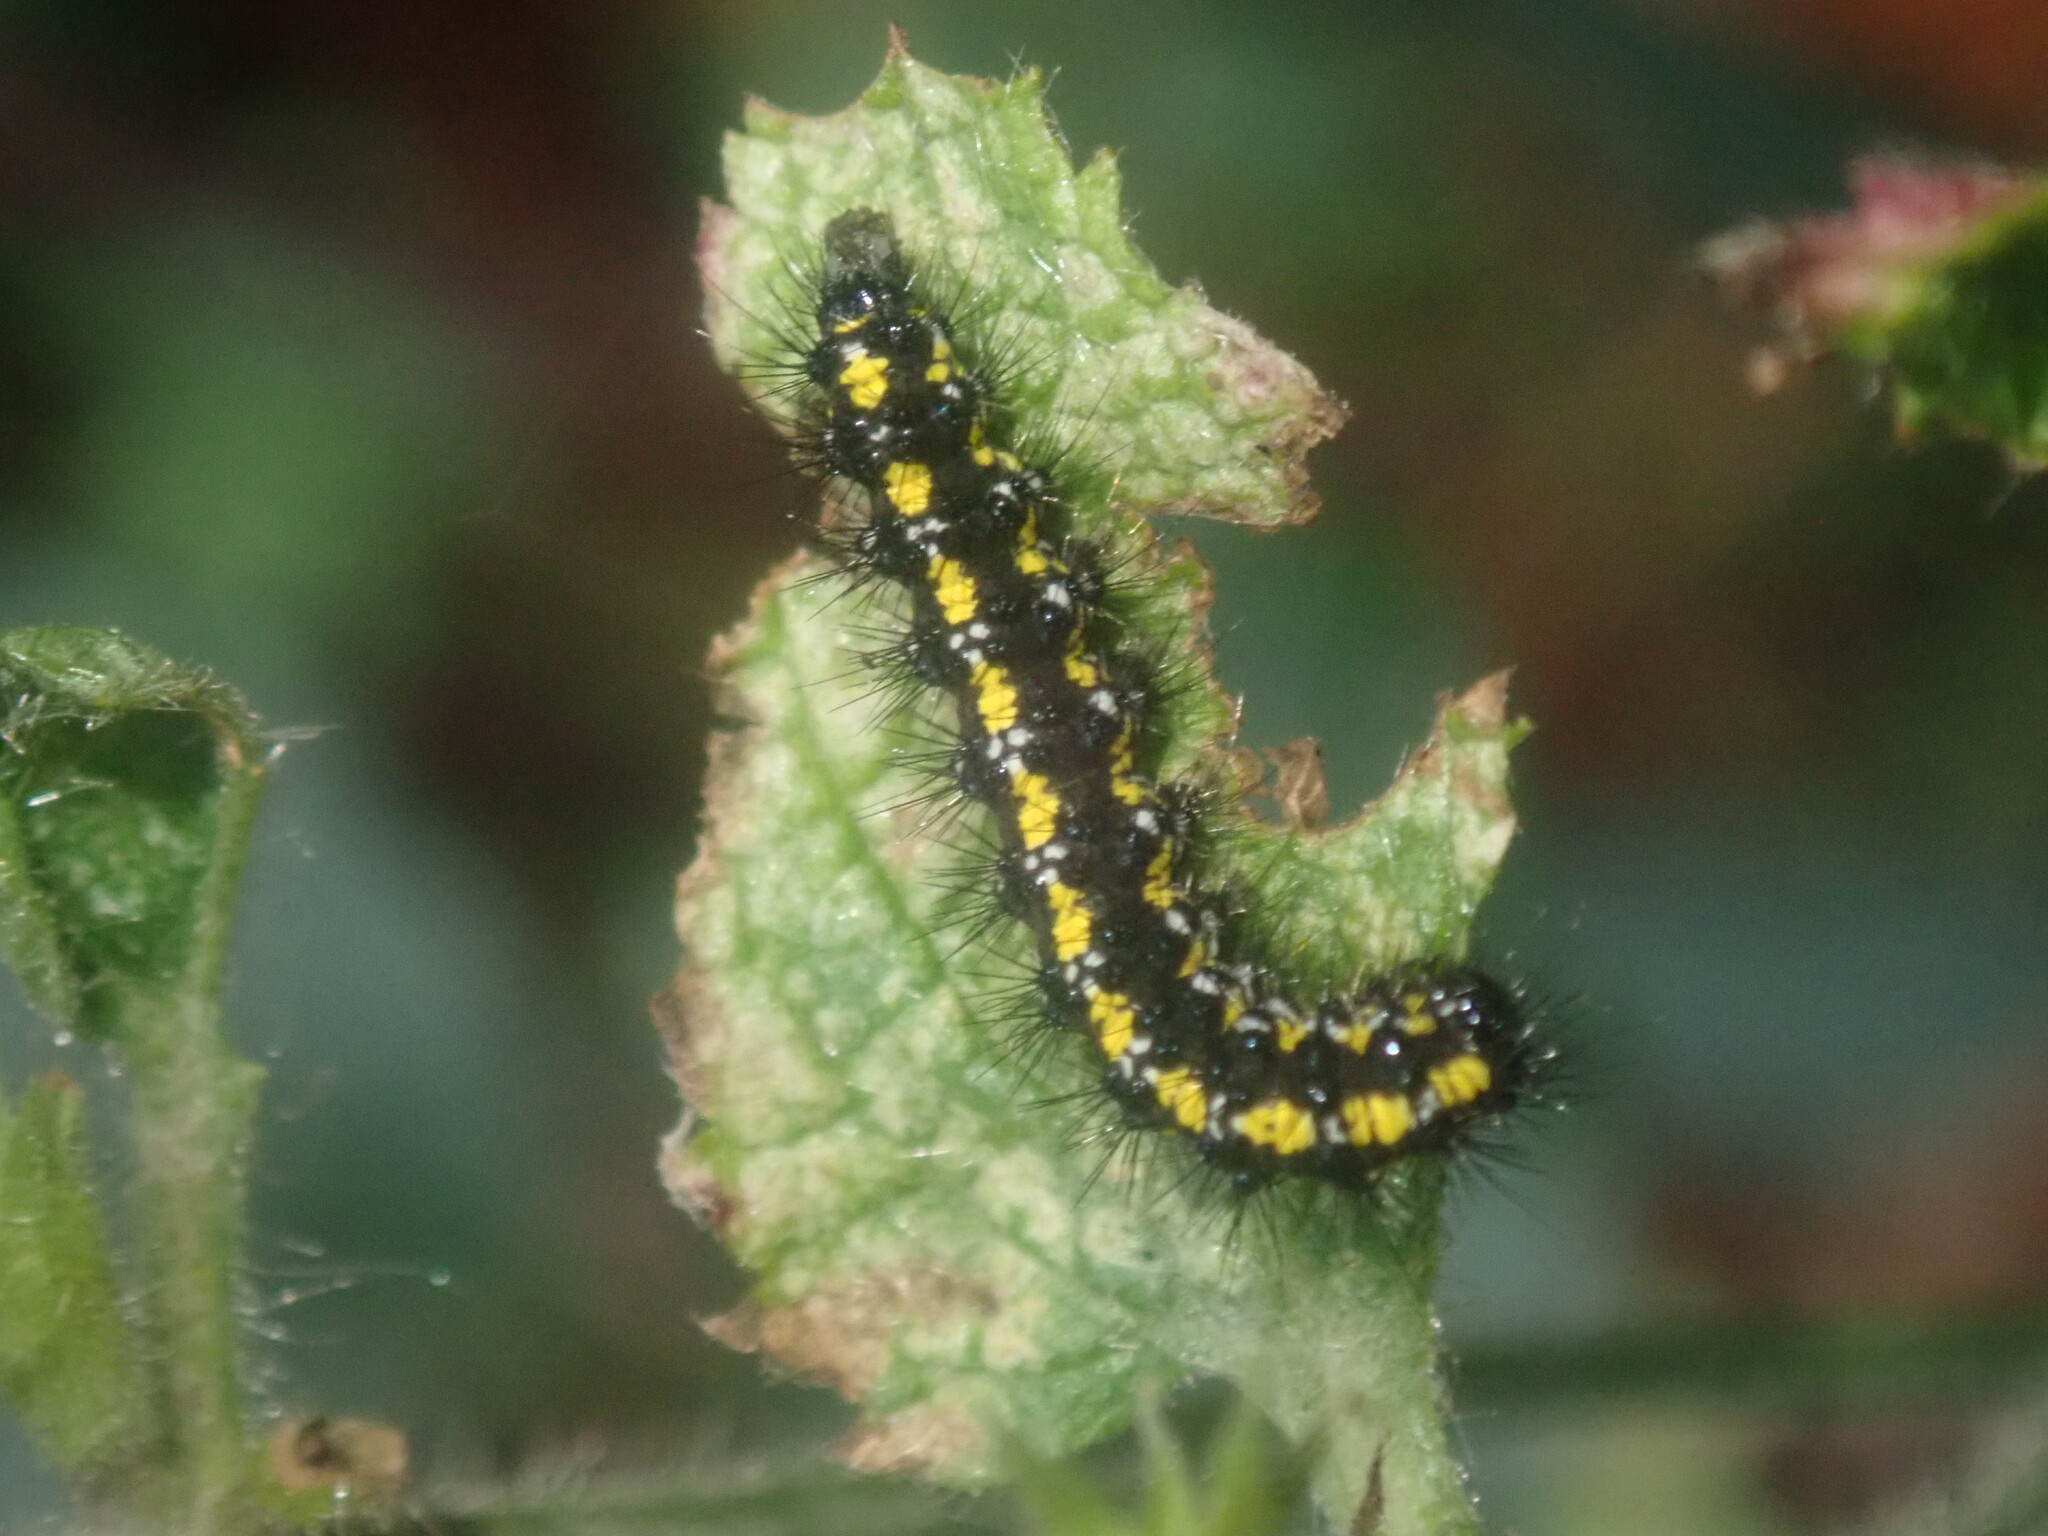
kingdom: Animalia
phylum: Arthropoda
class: Insecta
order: Lepidoptera
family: Erebidae
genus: Callimorpha
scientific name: Callimorpha dominula
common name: Scarlet tiger
